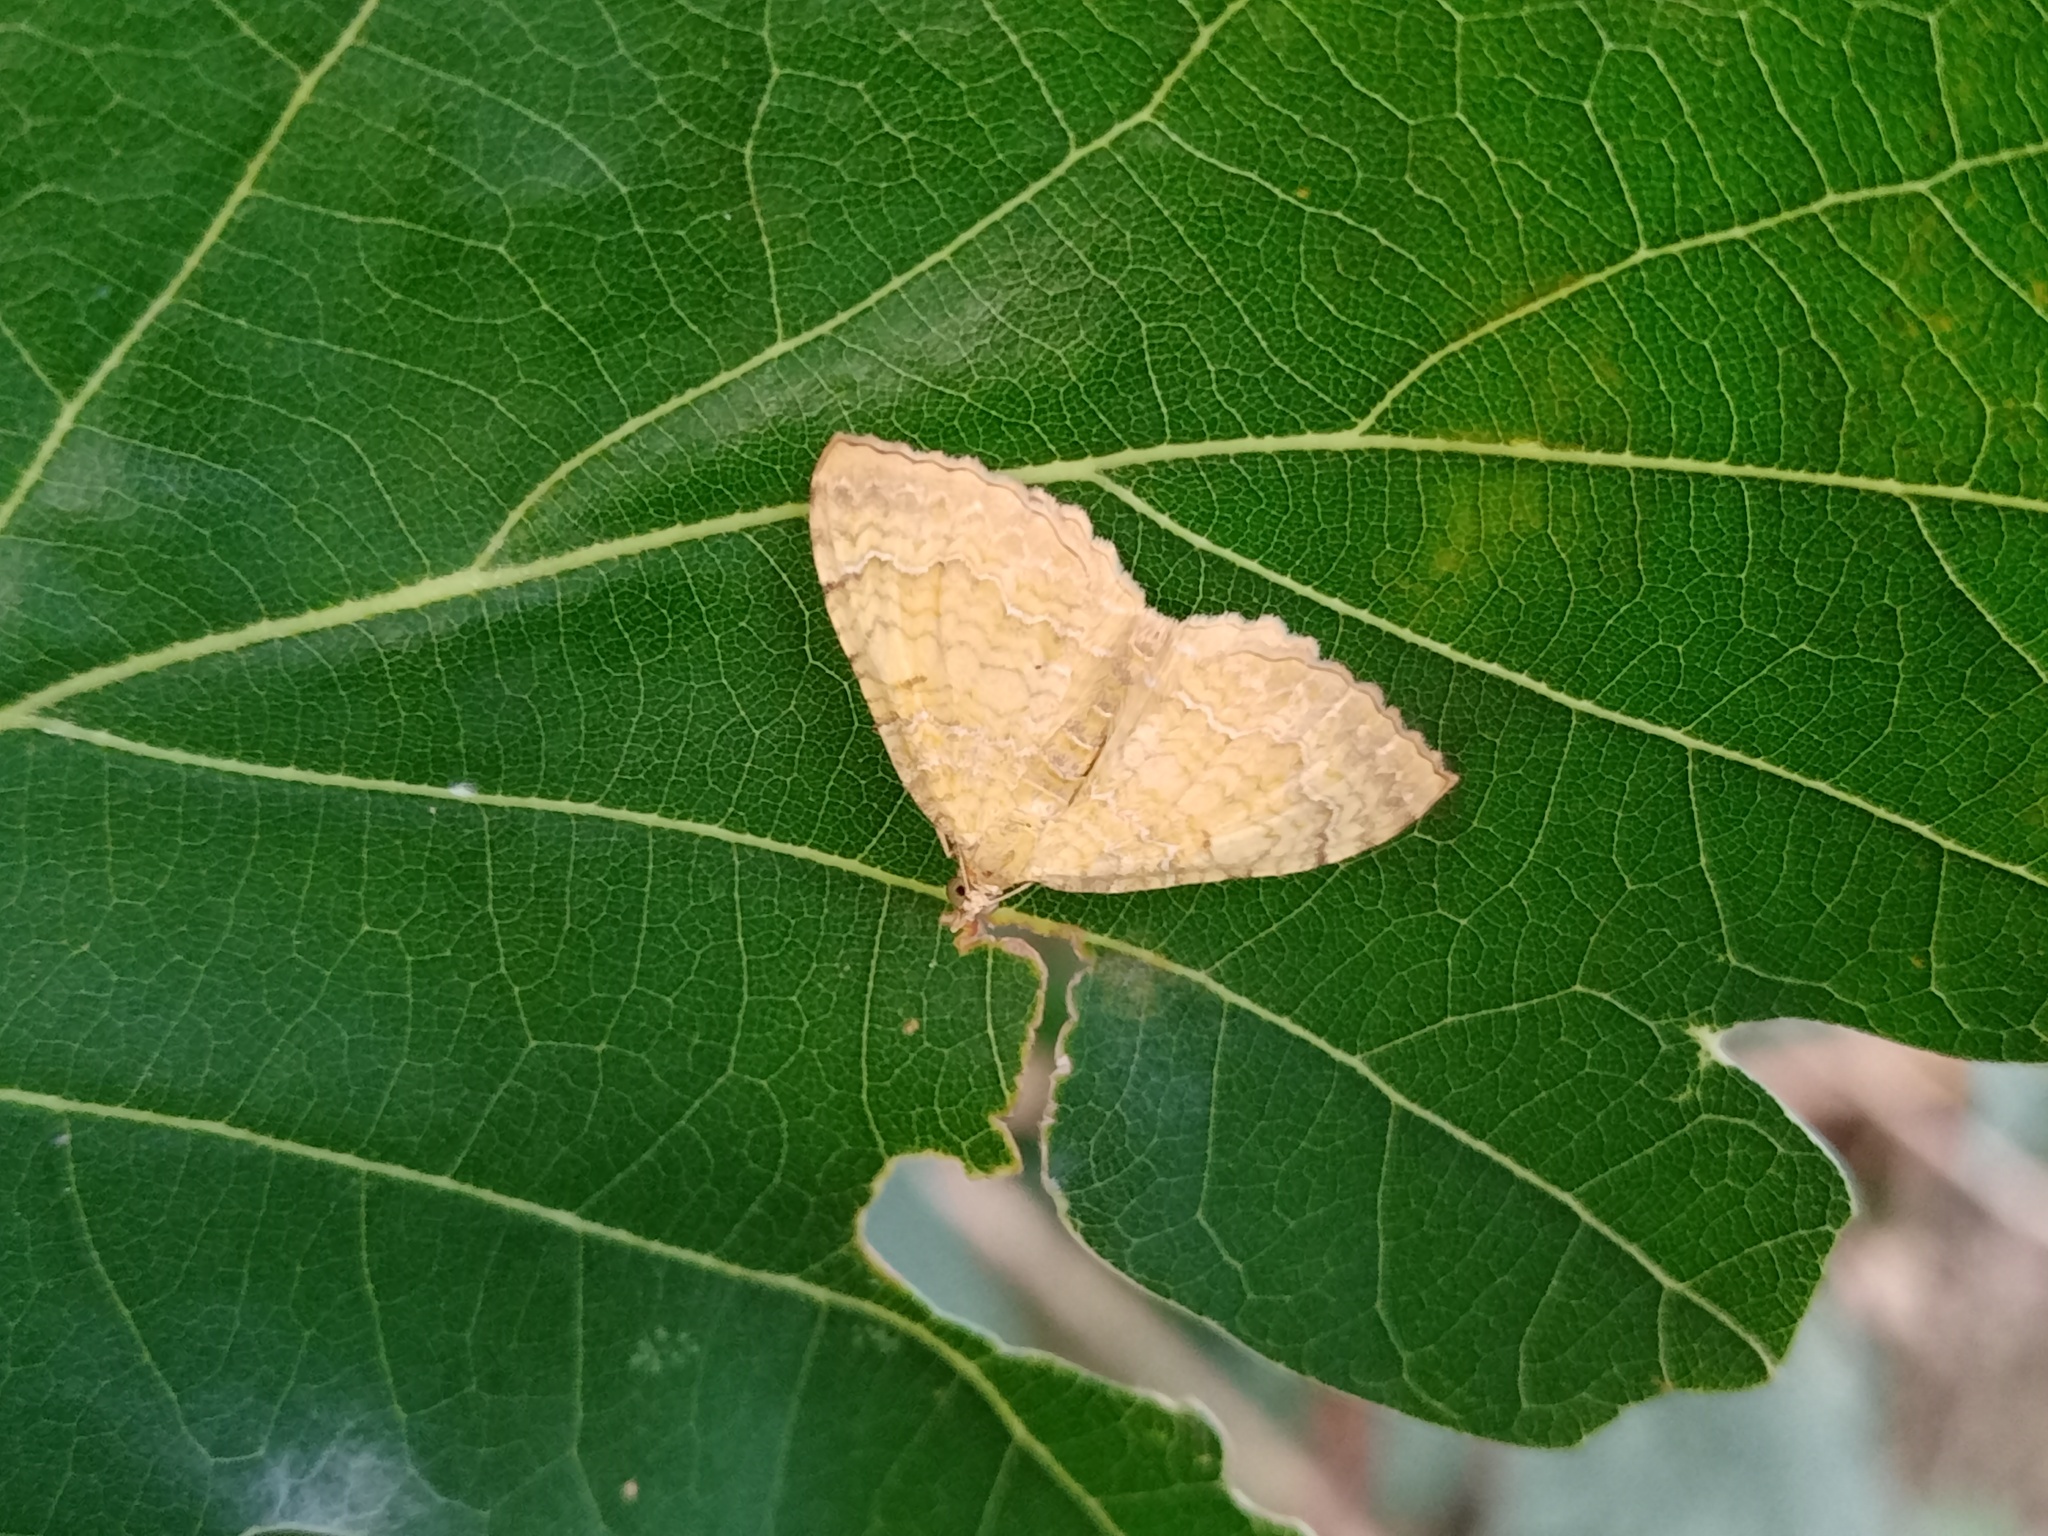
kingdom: Animalia
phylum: Arthropoda
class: Insecta
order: Lepidoptera
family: Geometridae
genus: Camptogramma
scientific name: Camptogramma bilineata
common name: Yellow shell
